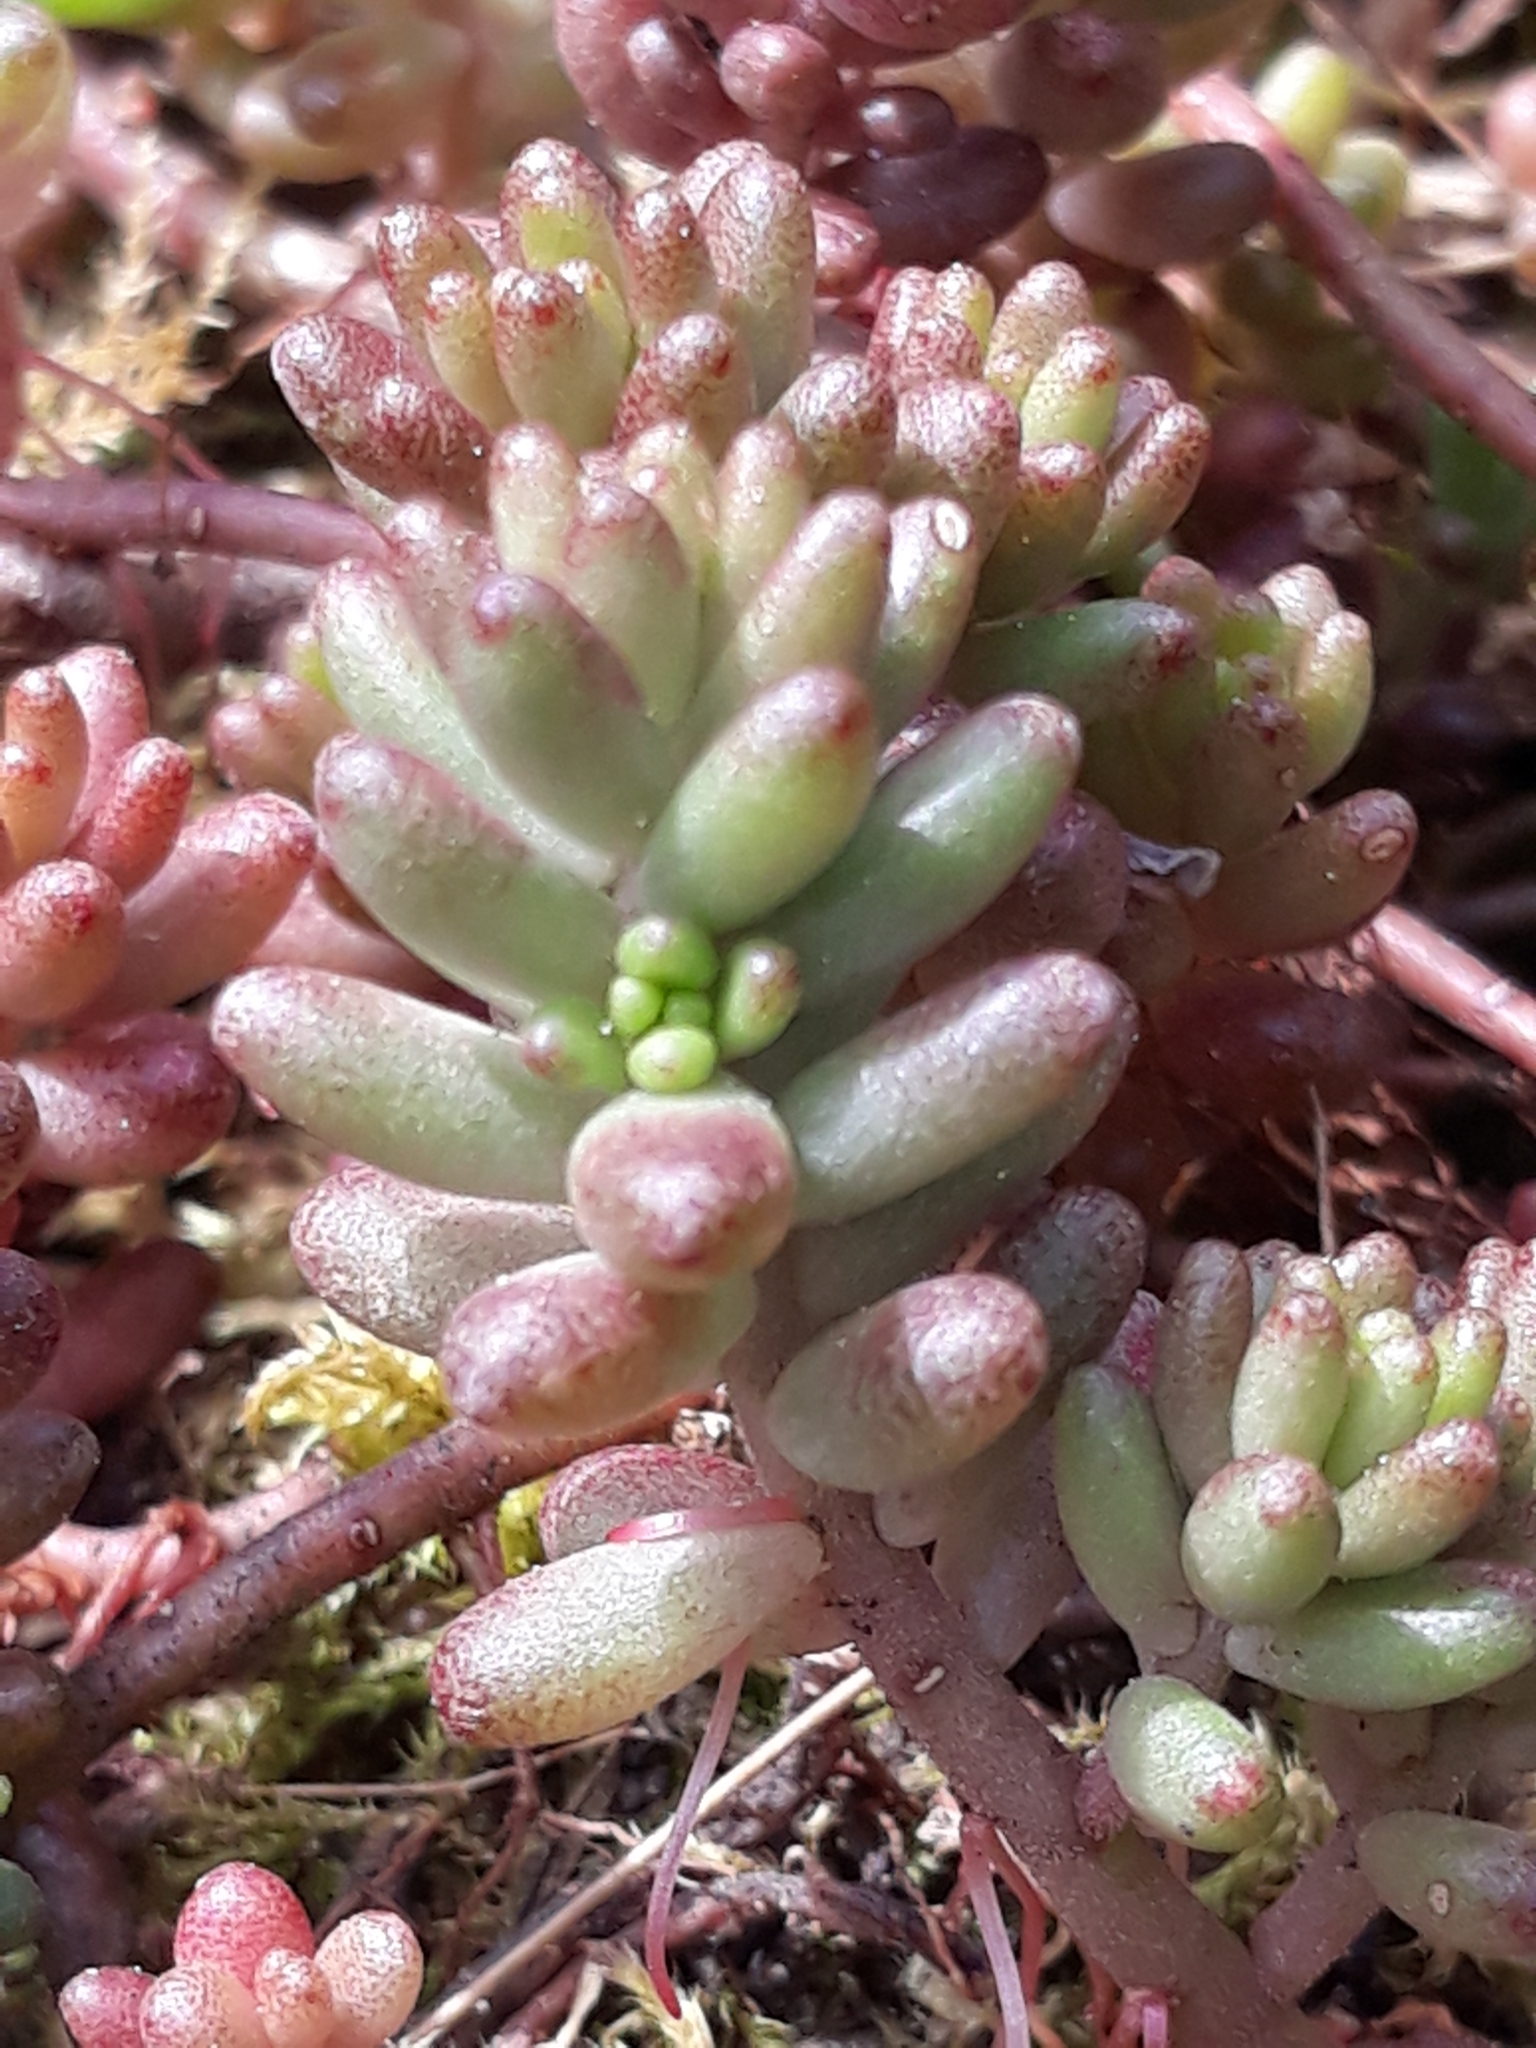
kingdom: Plantae
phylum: Tracheophyta
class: Magnoliopsida
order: Saxifragales
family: Crassulaceae
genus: Sedum
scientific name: Sedum album
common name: White stonecrop
